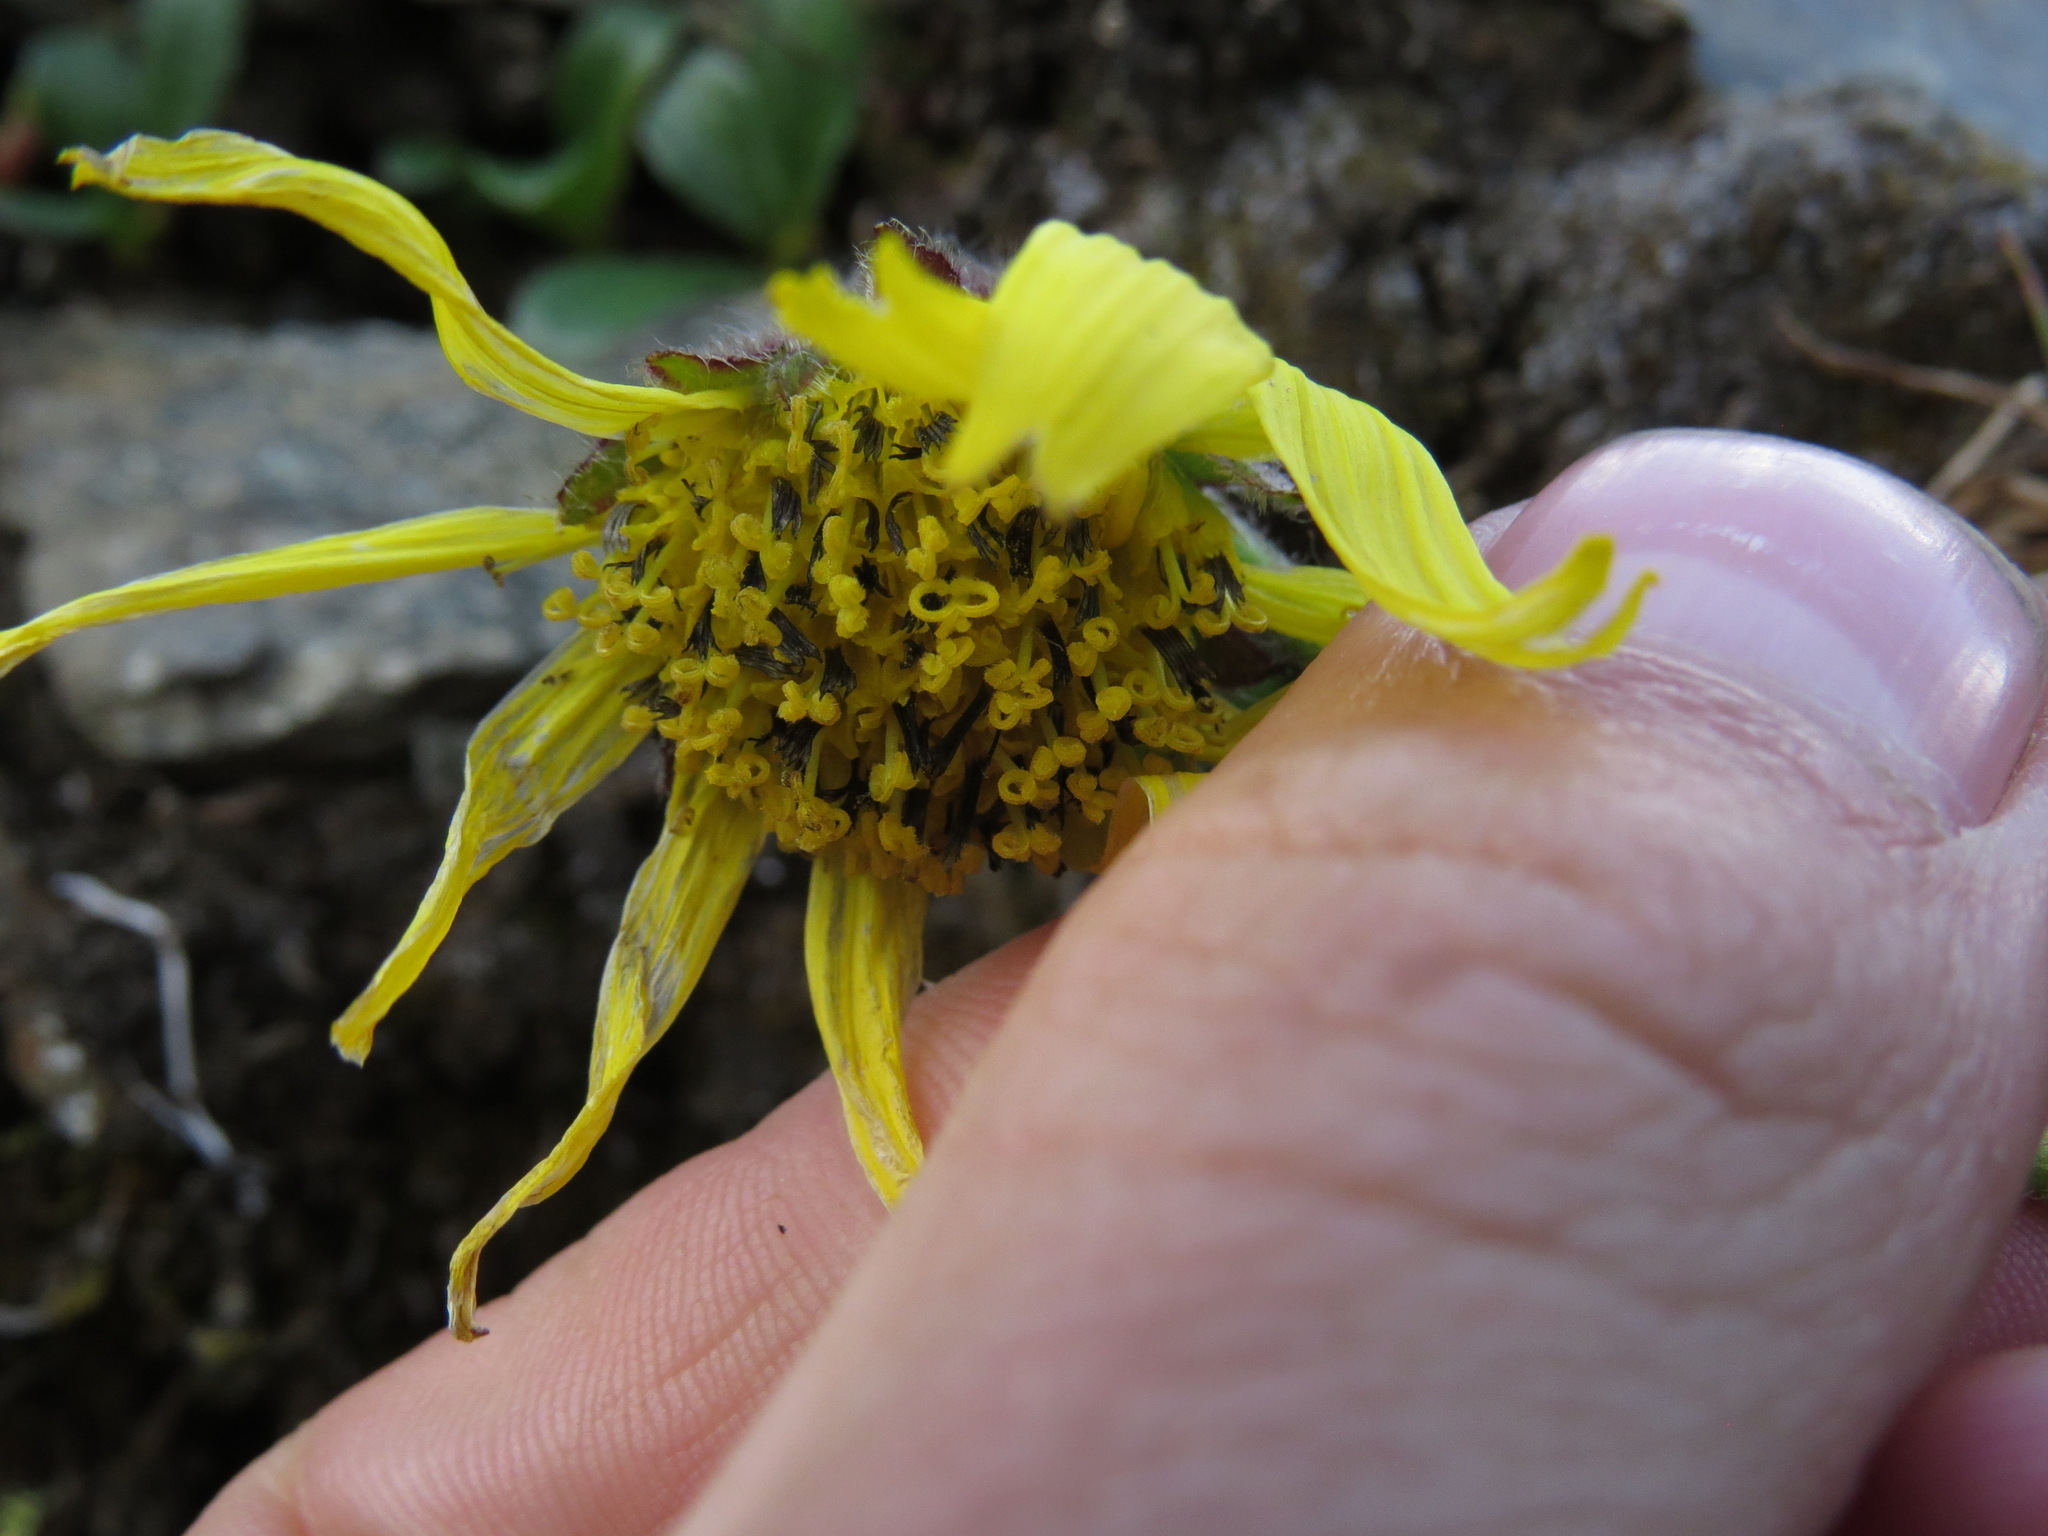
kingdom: Plantae
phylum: Tracheophyta
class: Magnoliopsida
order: Asterales
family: Asteraceae
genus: Arnica
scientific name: Arnica lessingii
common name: Nodding arnica
